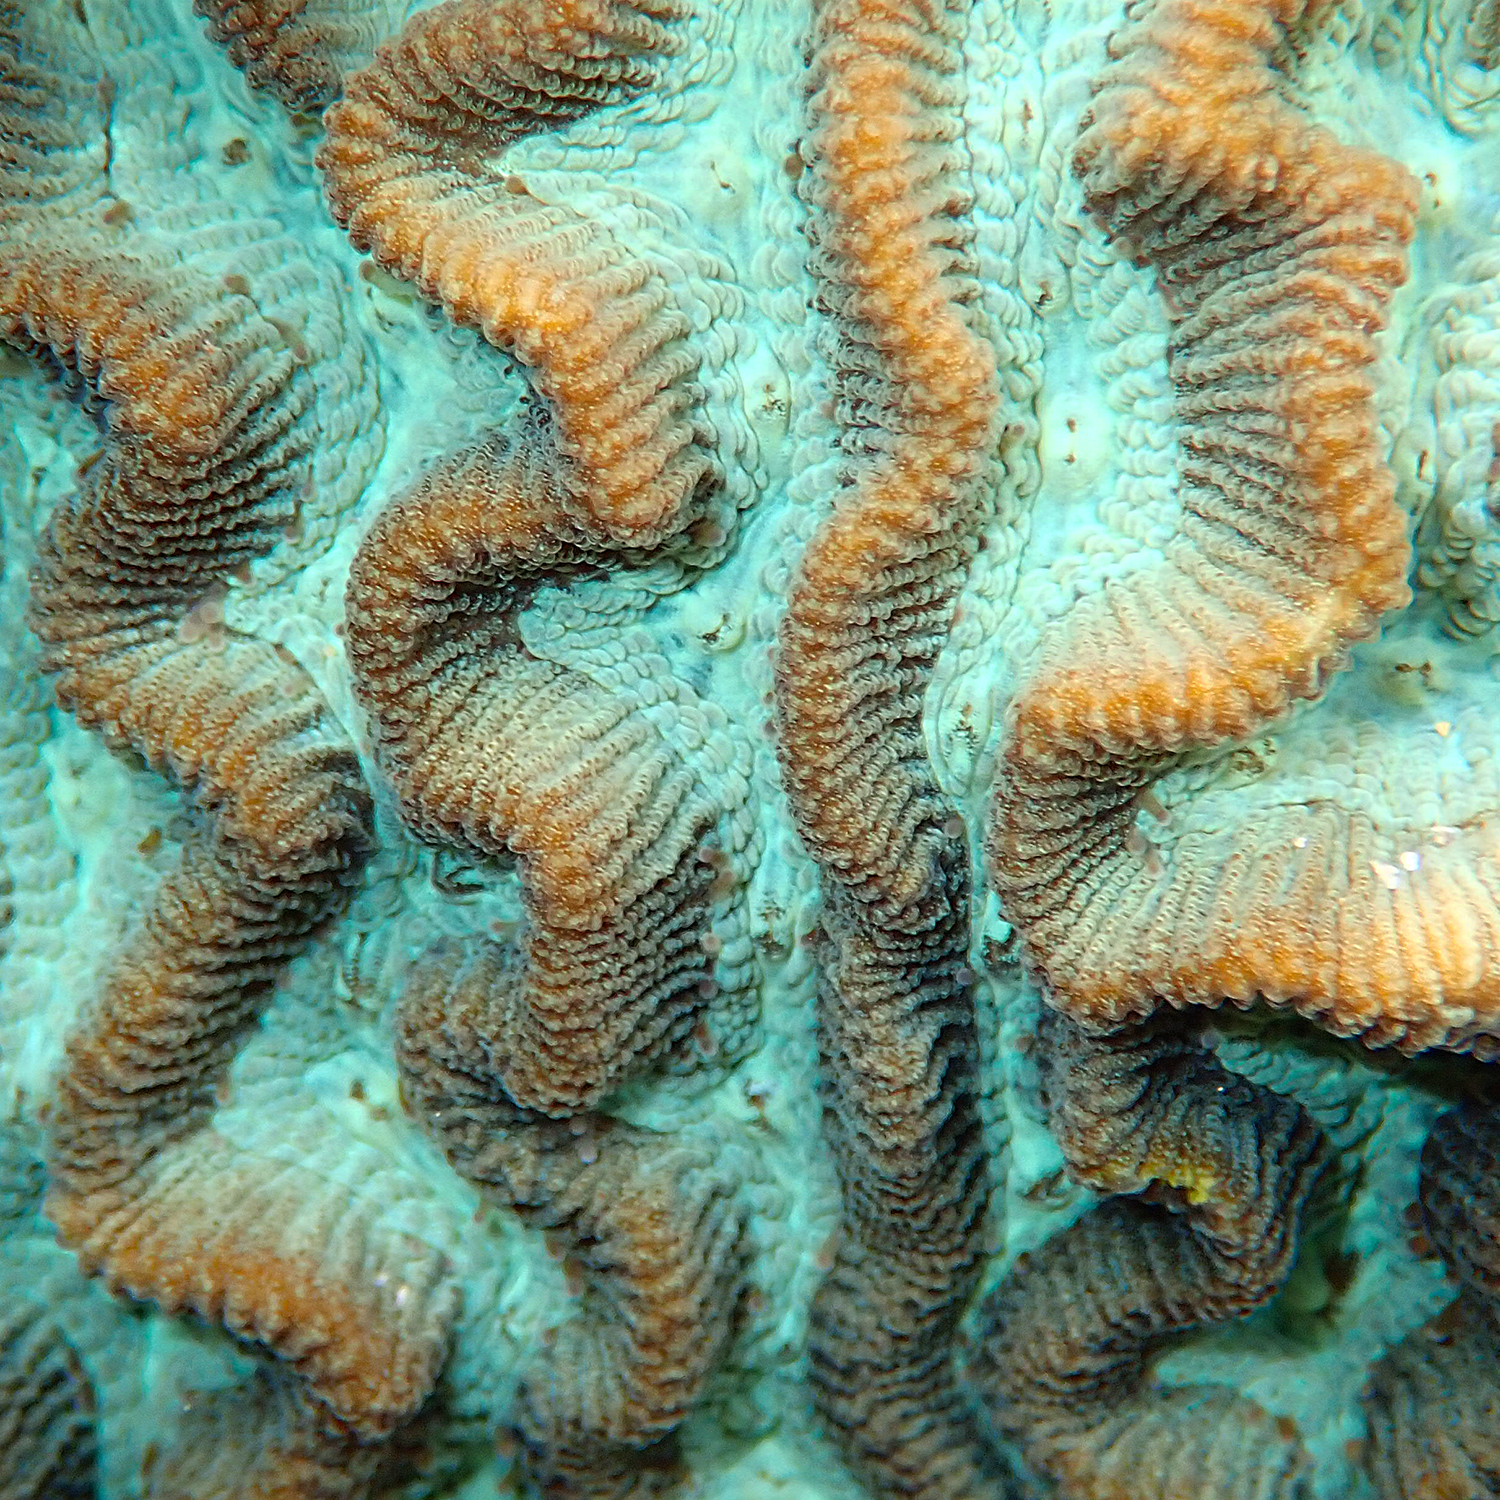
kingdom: Animalia
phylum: Cnidaria
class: Anthozoa
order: Scleractinia
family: Merulinidae
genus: Paragoniastrea
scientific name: Paragoniastrea australensis
